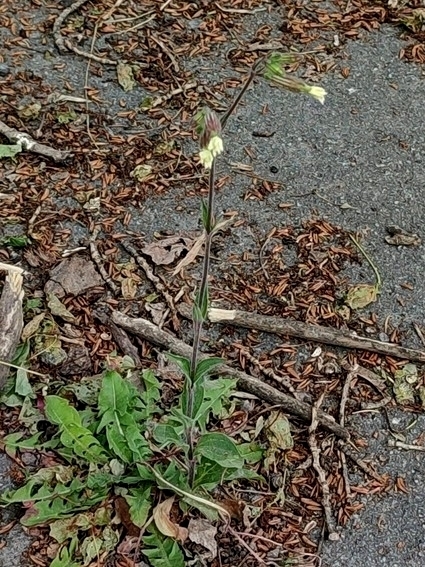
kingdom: Plantae
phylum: Tracheophyta
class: Magnoliopsida
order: Caryophyllales
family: Caryophyllaceae
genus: Silene
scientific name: Silene latifolia
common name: White campion
